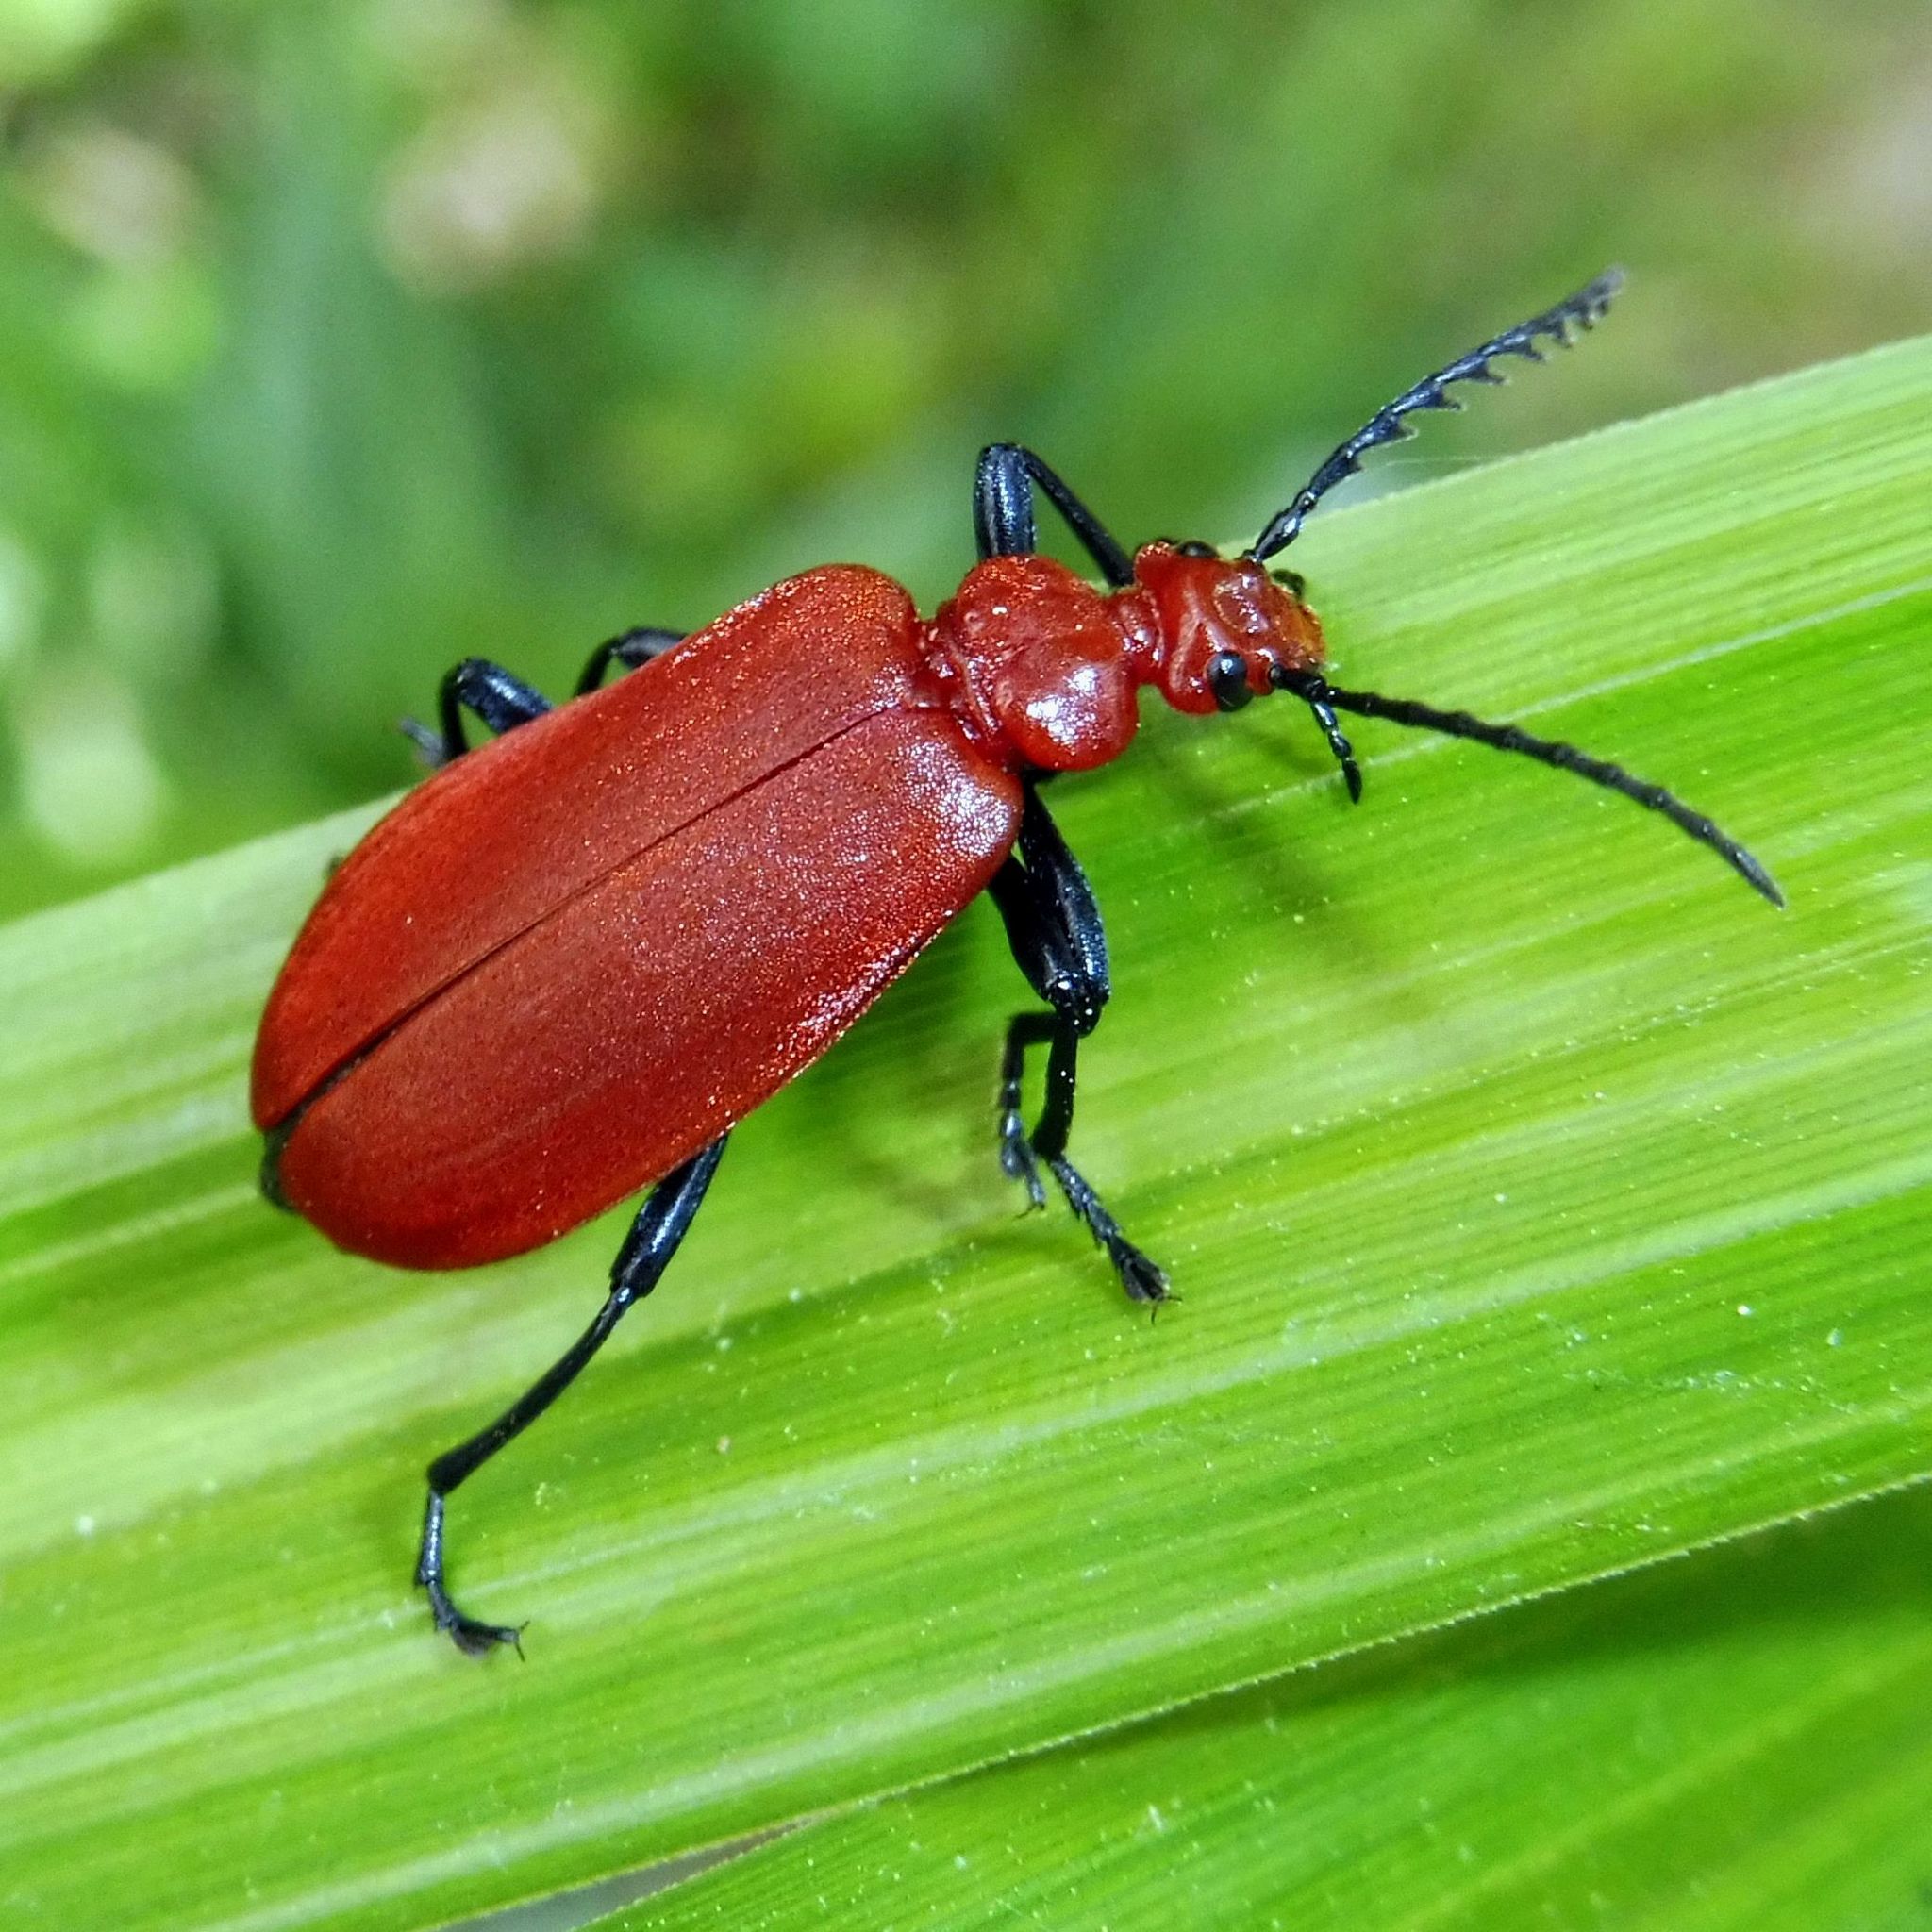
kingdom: Animalia
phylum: Arthropoda
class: Insecta
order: Coleoptera
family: Pyrochroidae
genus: Pyrochroa
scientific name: Pyrochroa serraticornis
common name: Red-headed cardinal beetle
